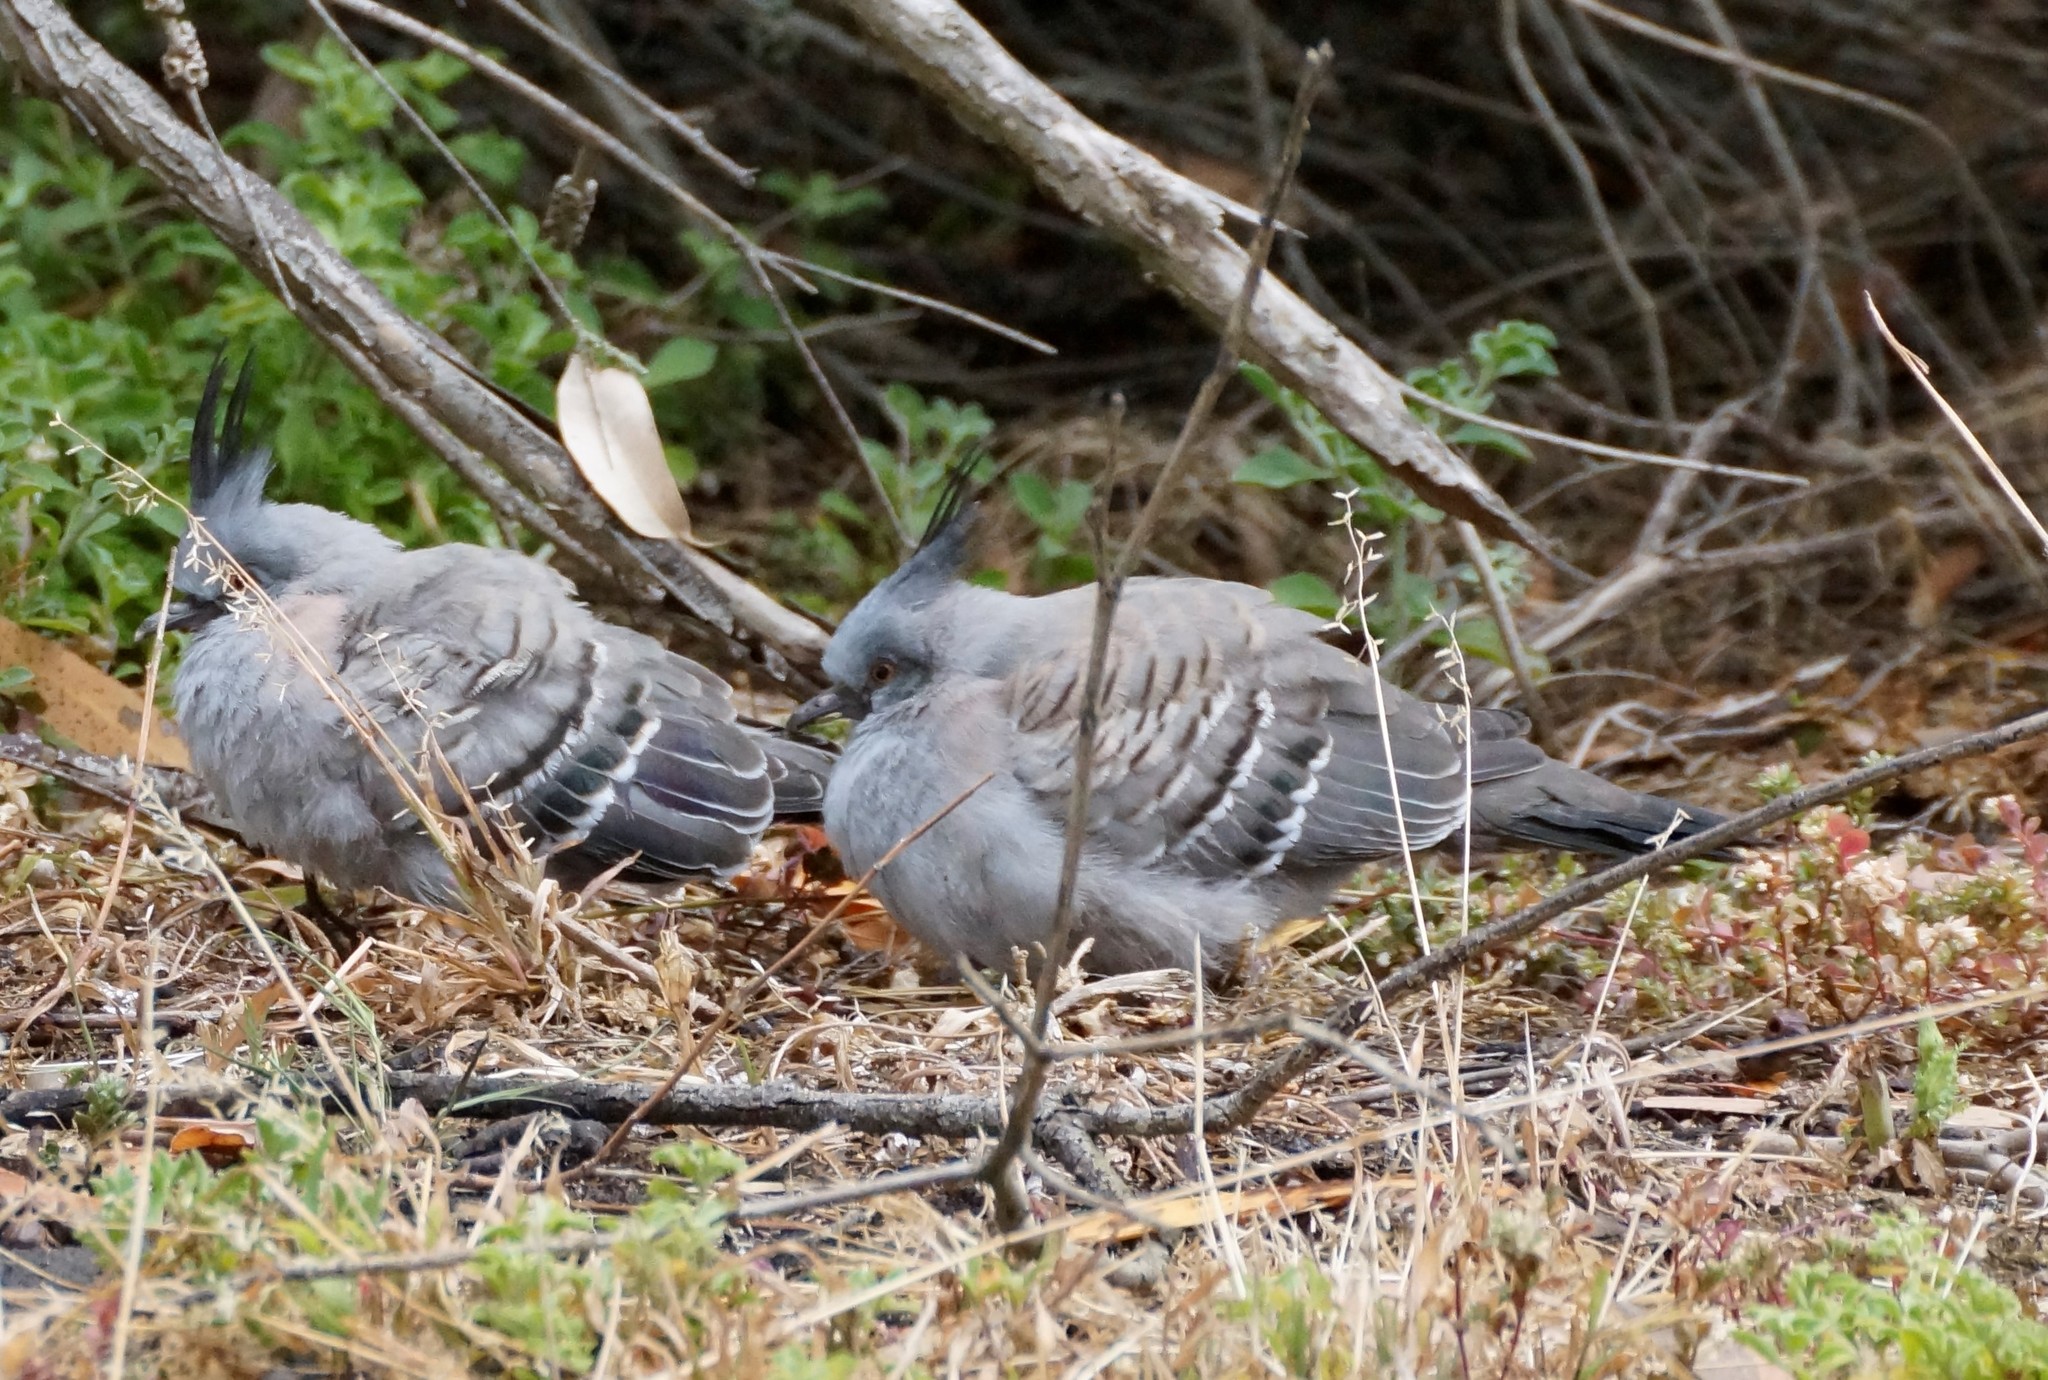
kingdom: Animalia
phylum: Chordata
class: Aves
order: Columbiformes
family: Columbidae
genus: Ocyphaps
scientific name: Ocyphaps lophotes
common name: Crested pigeon
